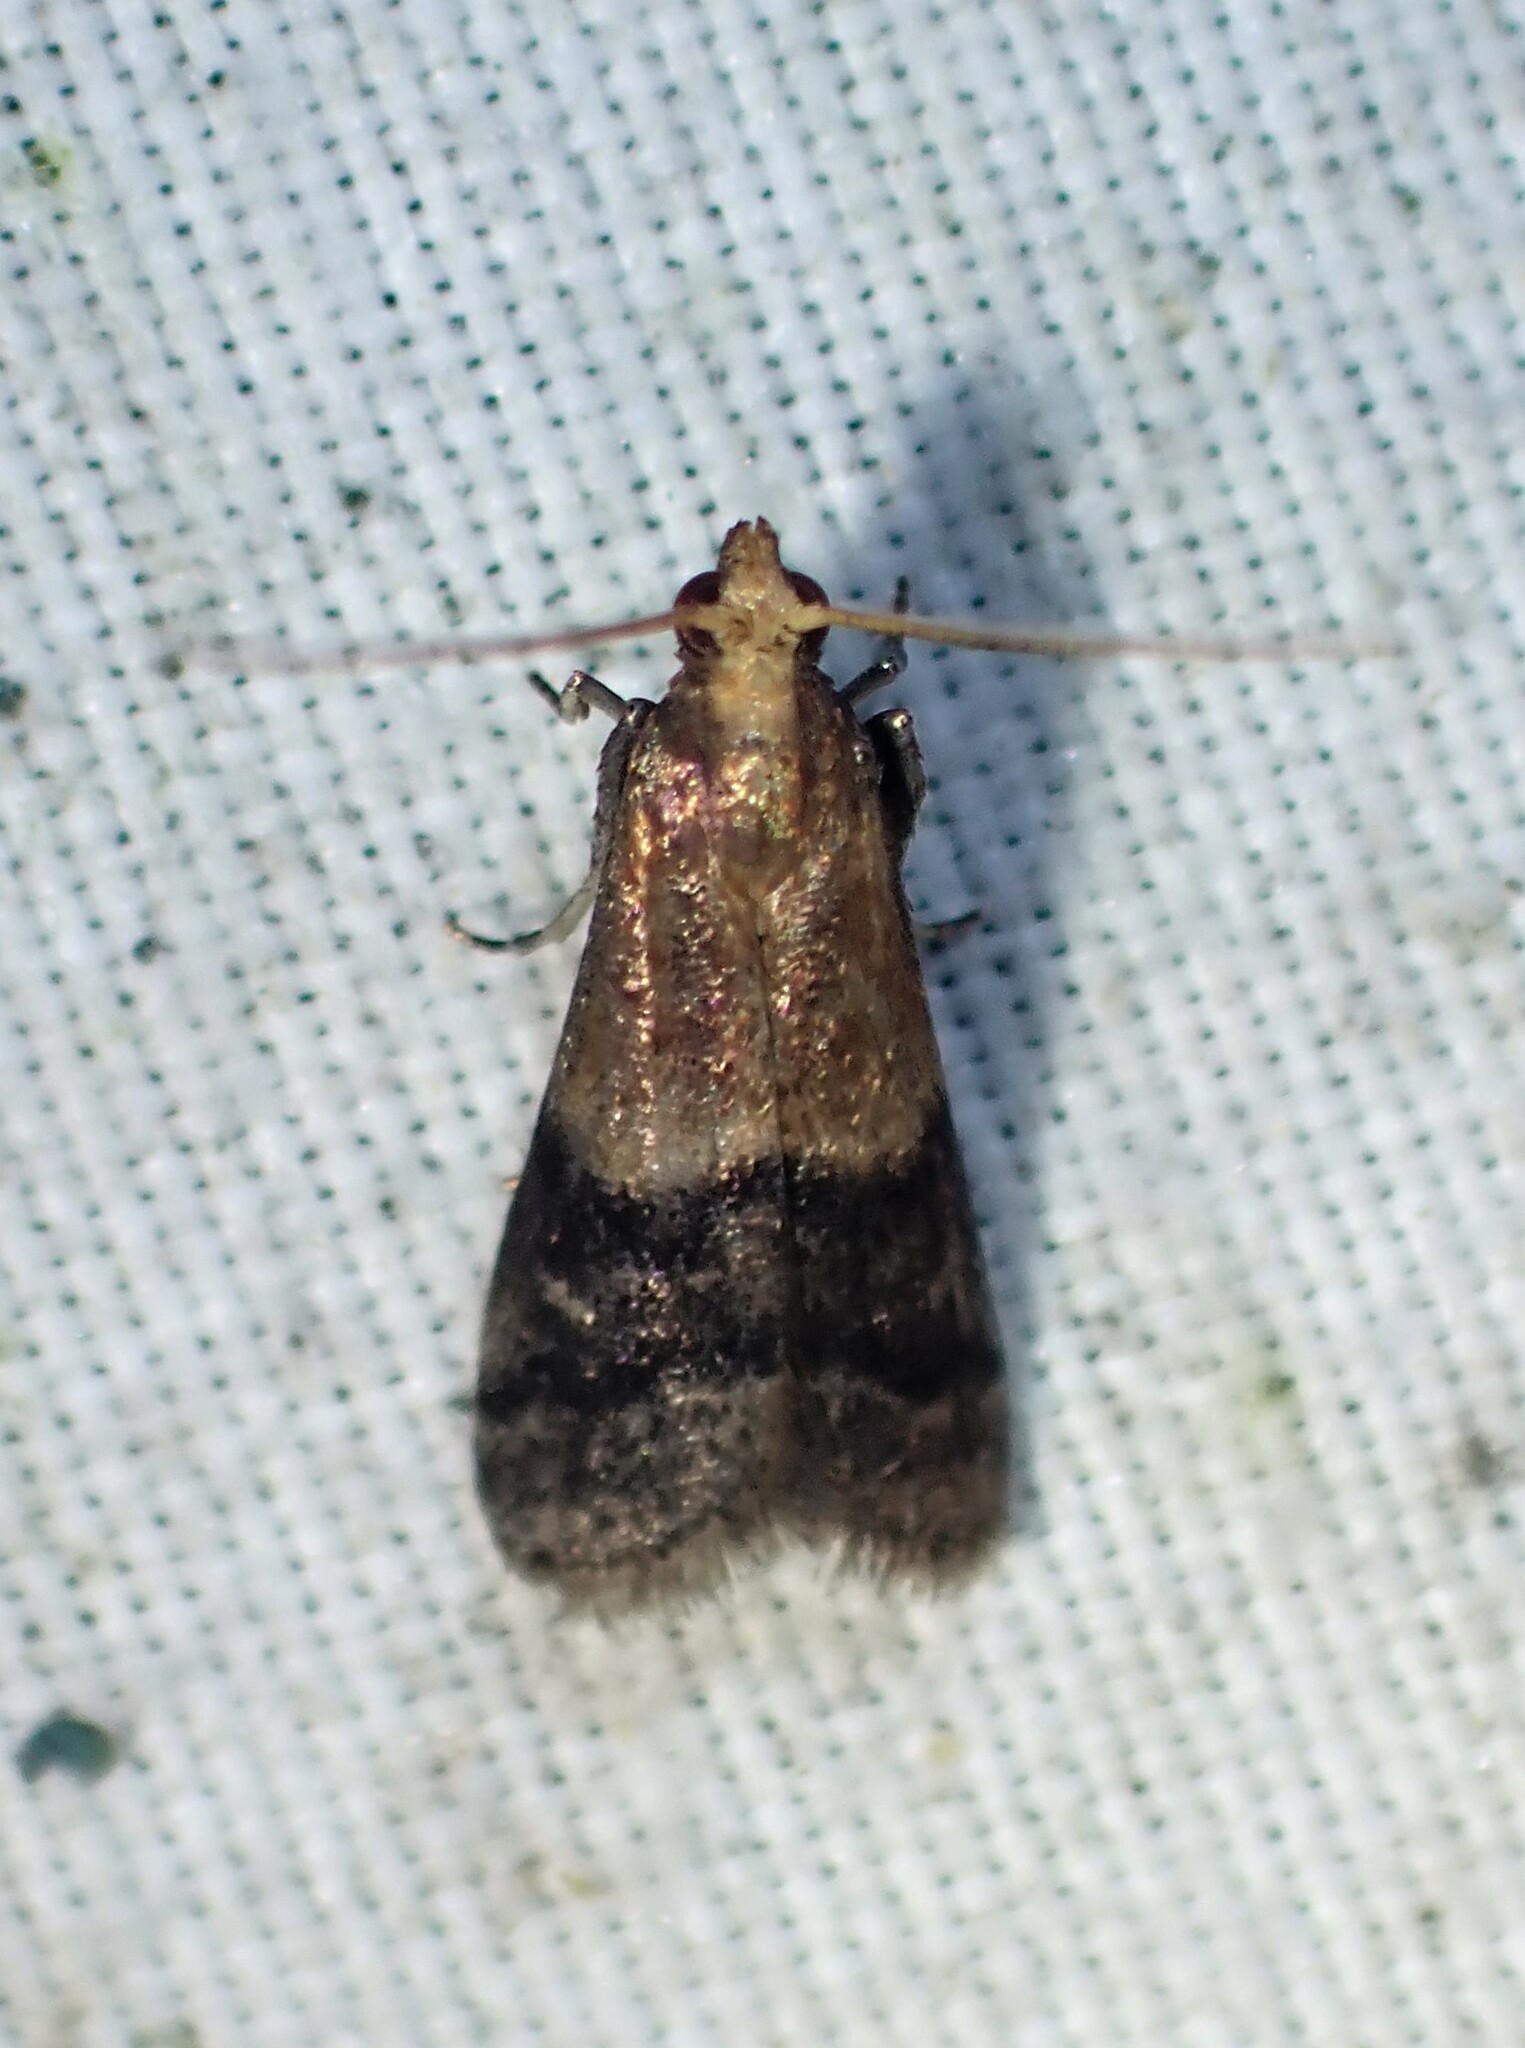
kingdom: Animalia
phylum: Arthropoda
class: Insecta
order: Lepidoptera
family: Pyralidae
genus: Eulogia
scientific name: Eulogia ochrifrontella
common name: Broad-banded eulogia moth
